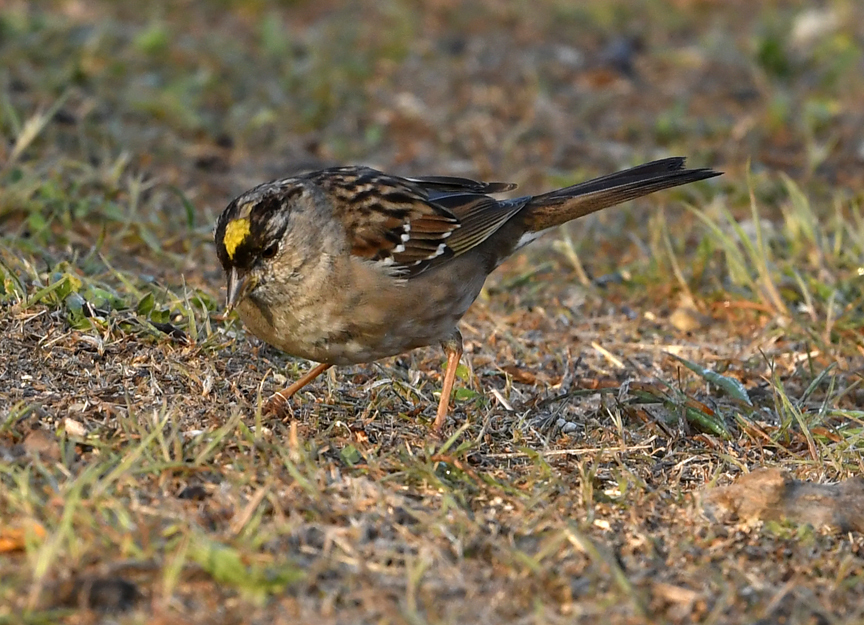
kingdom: Animalia
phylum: Chordata
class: Aves
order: Passeriformes
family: Passerellidae
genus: Zonotrichia
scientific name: Zonotrichia atricapilla
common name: Golden-crowned sparrow
